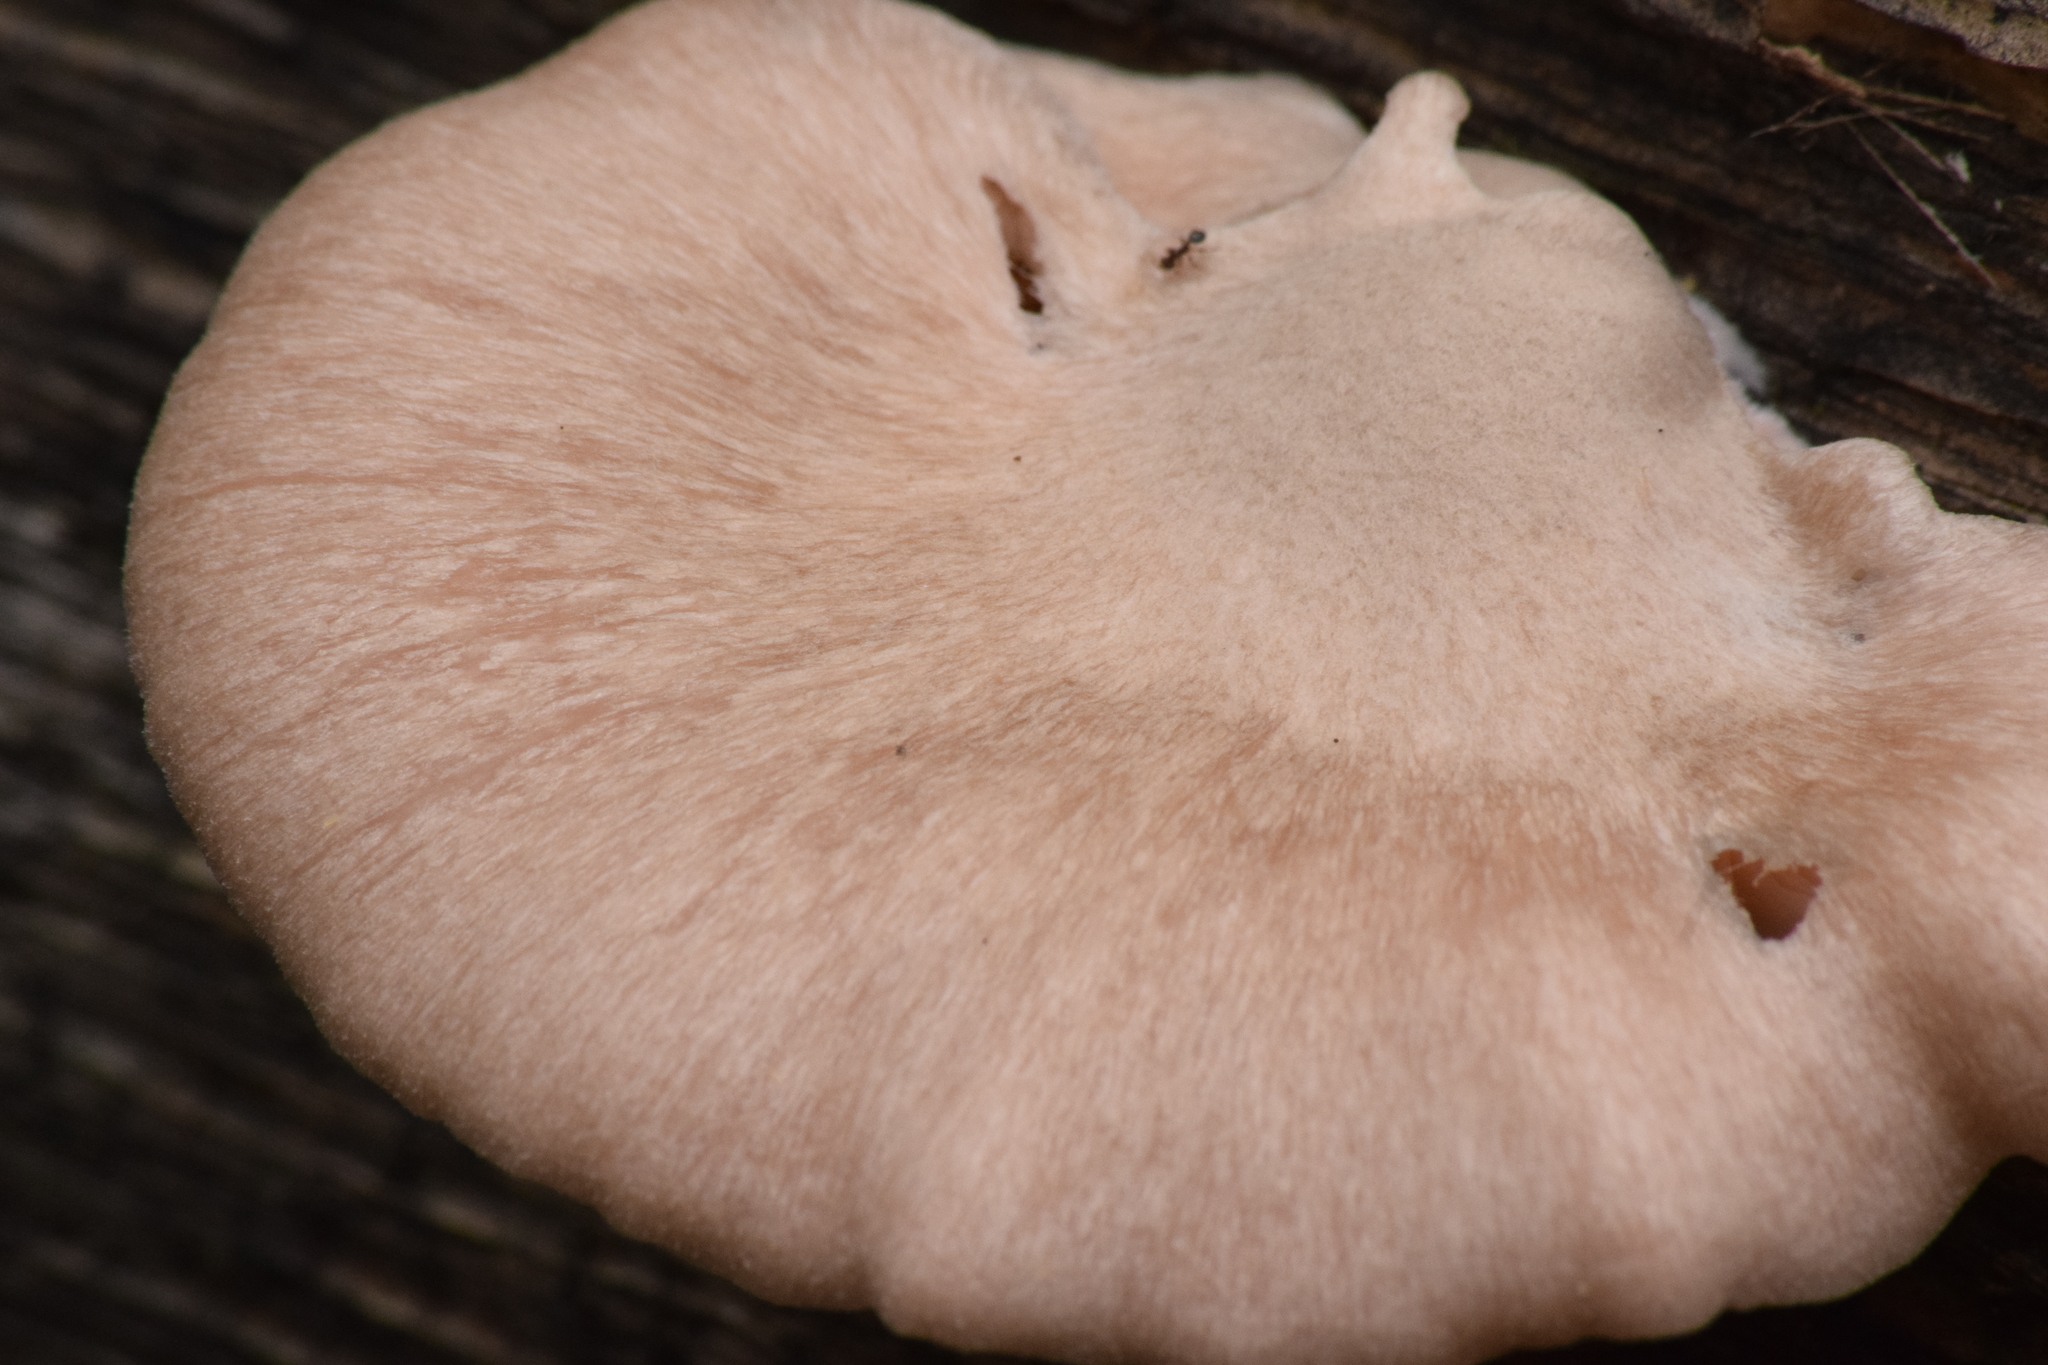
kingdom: Fungi
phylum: Basidiomycota
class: Agaricomycetes
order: Agaricales
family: Pleurotaceae
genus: Pleurotus
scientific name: Pleurotus djamor
